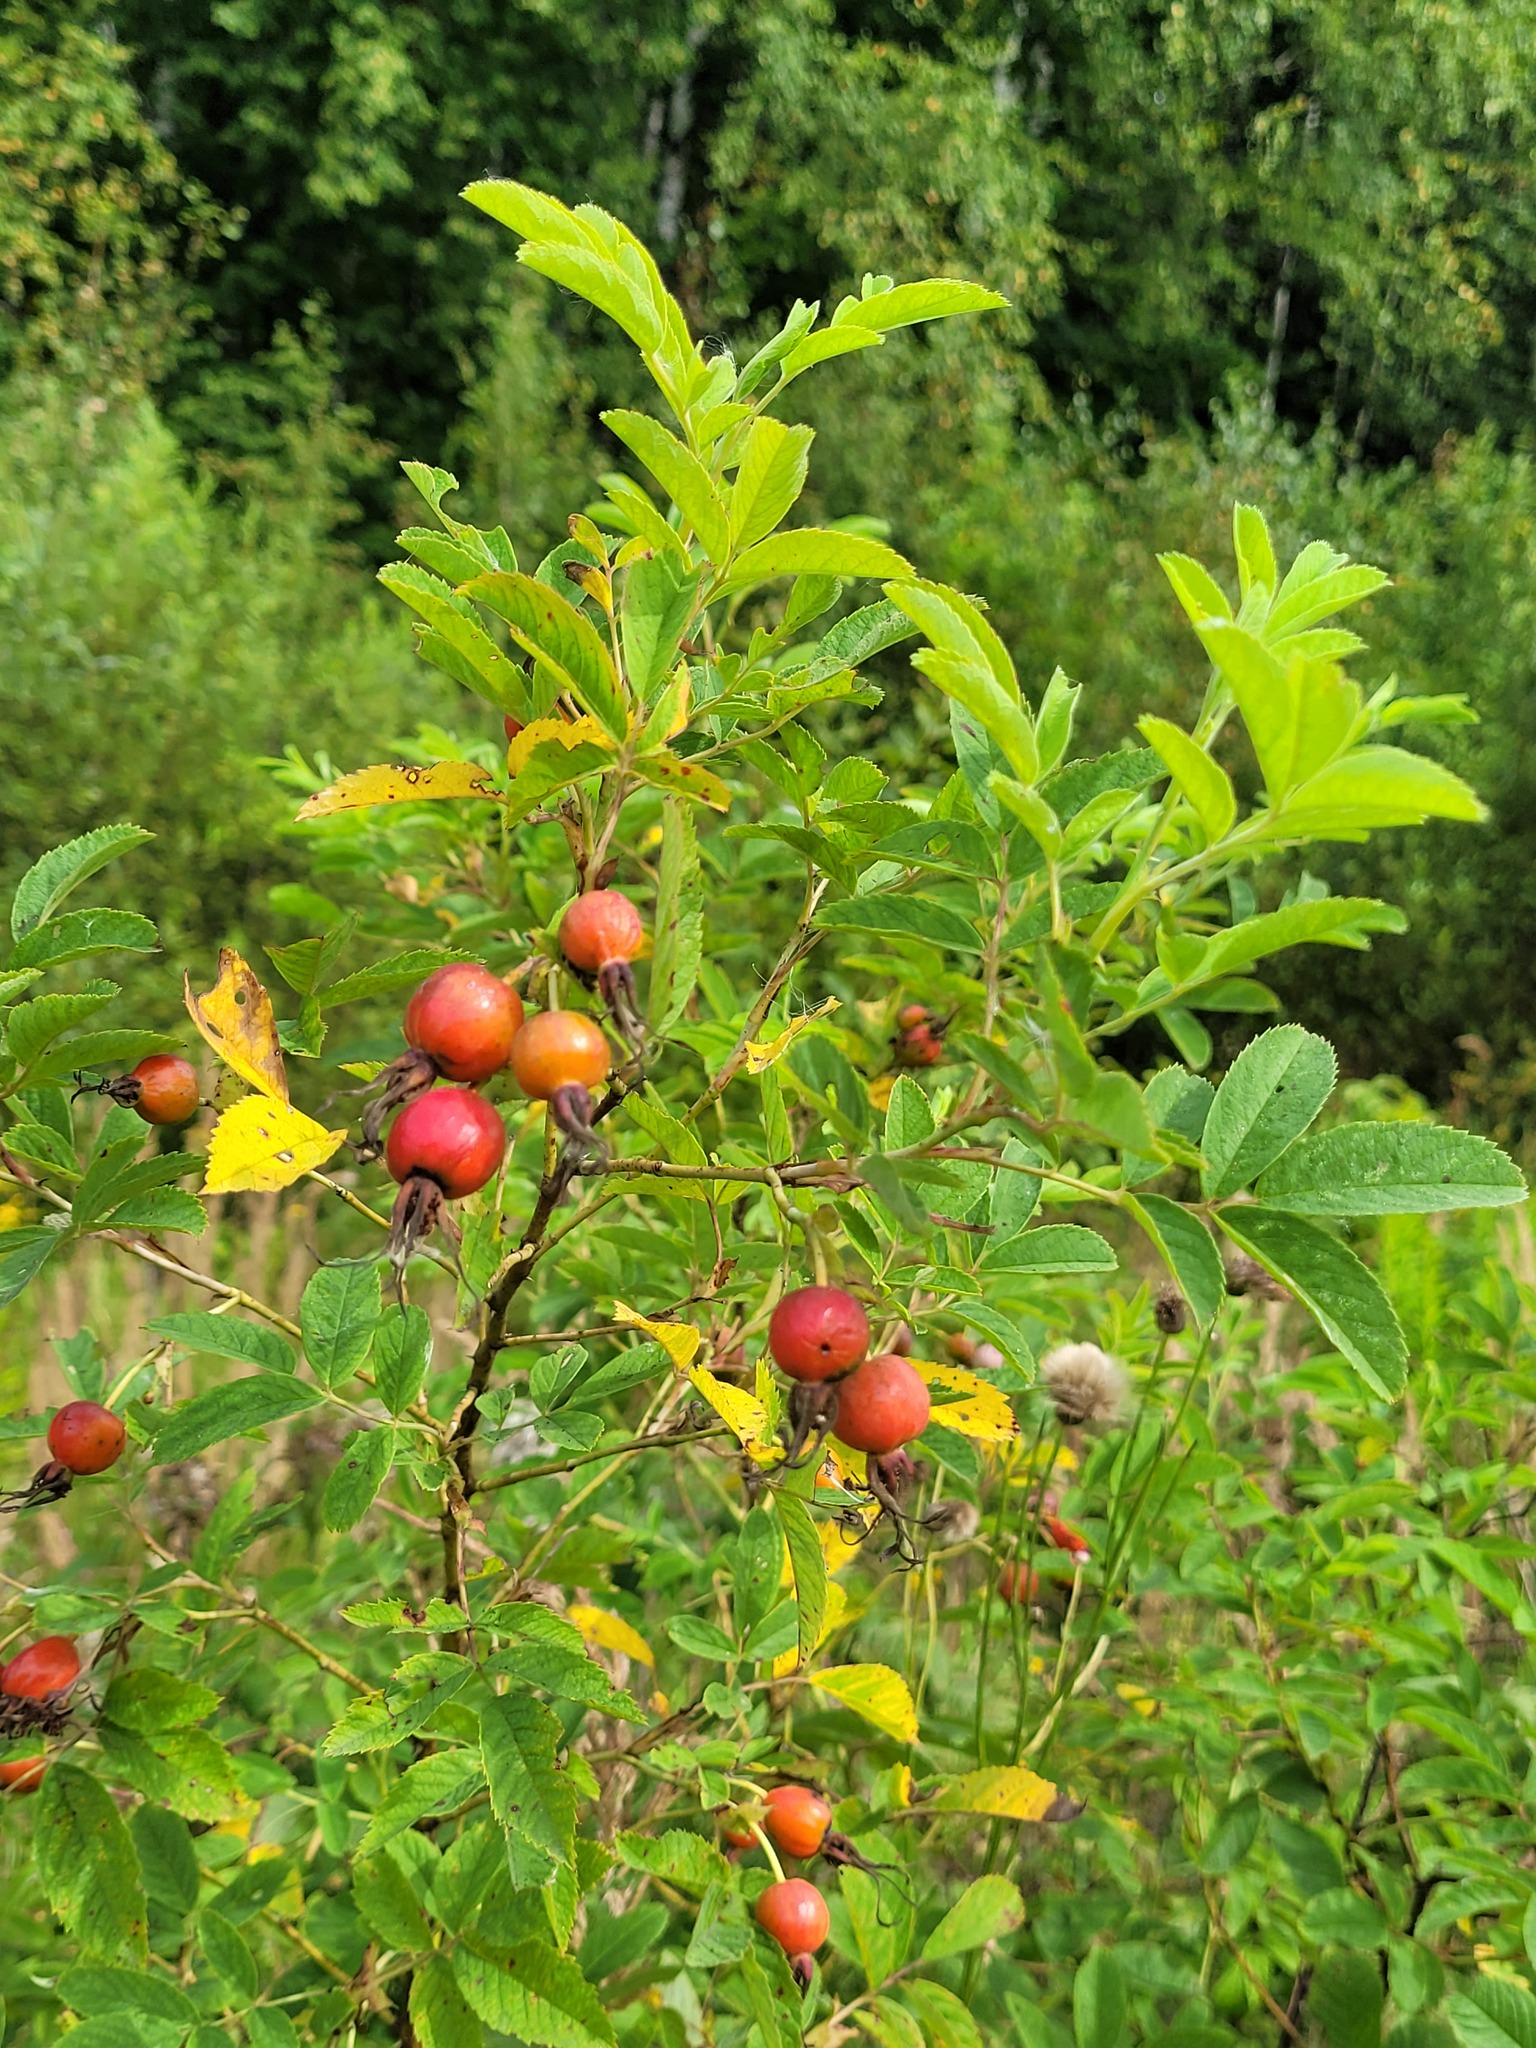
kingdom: Plantae
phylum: Tracheophyta
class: Magnoliopsida
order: Rosales
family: Rosaceae
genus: Rosa
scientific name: Rosa majalis
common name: Cinnamon rose
